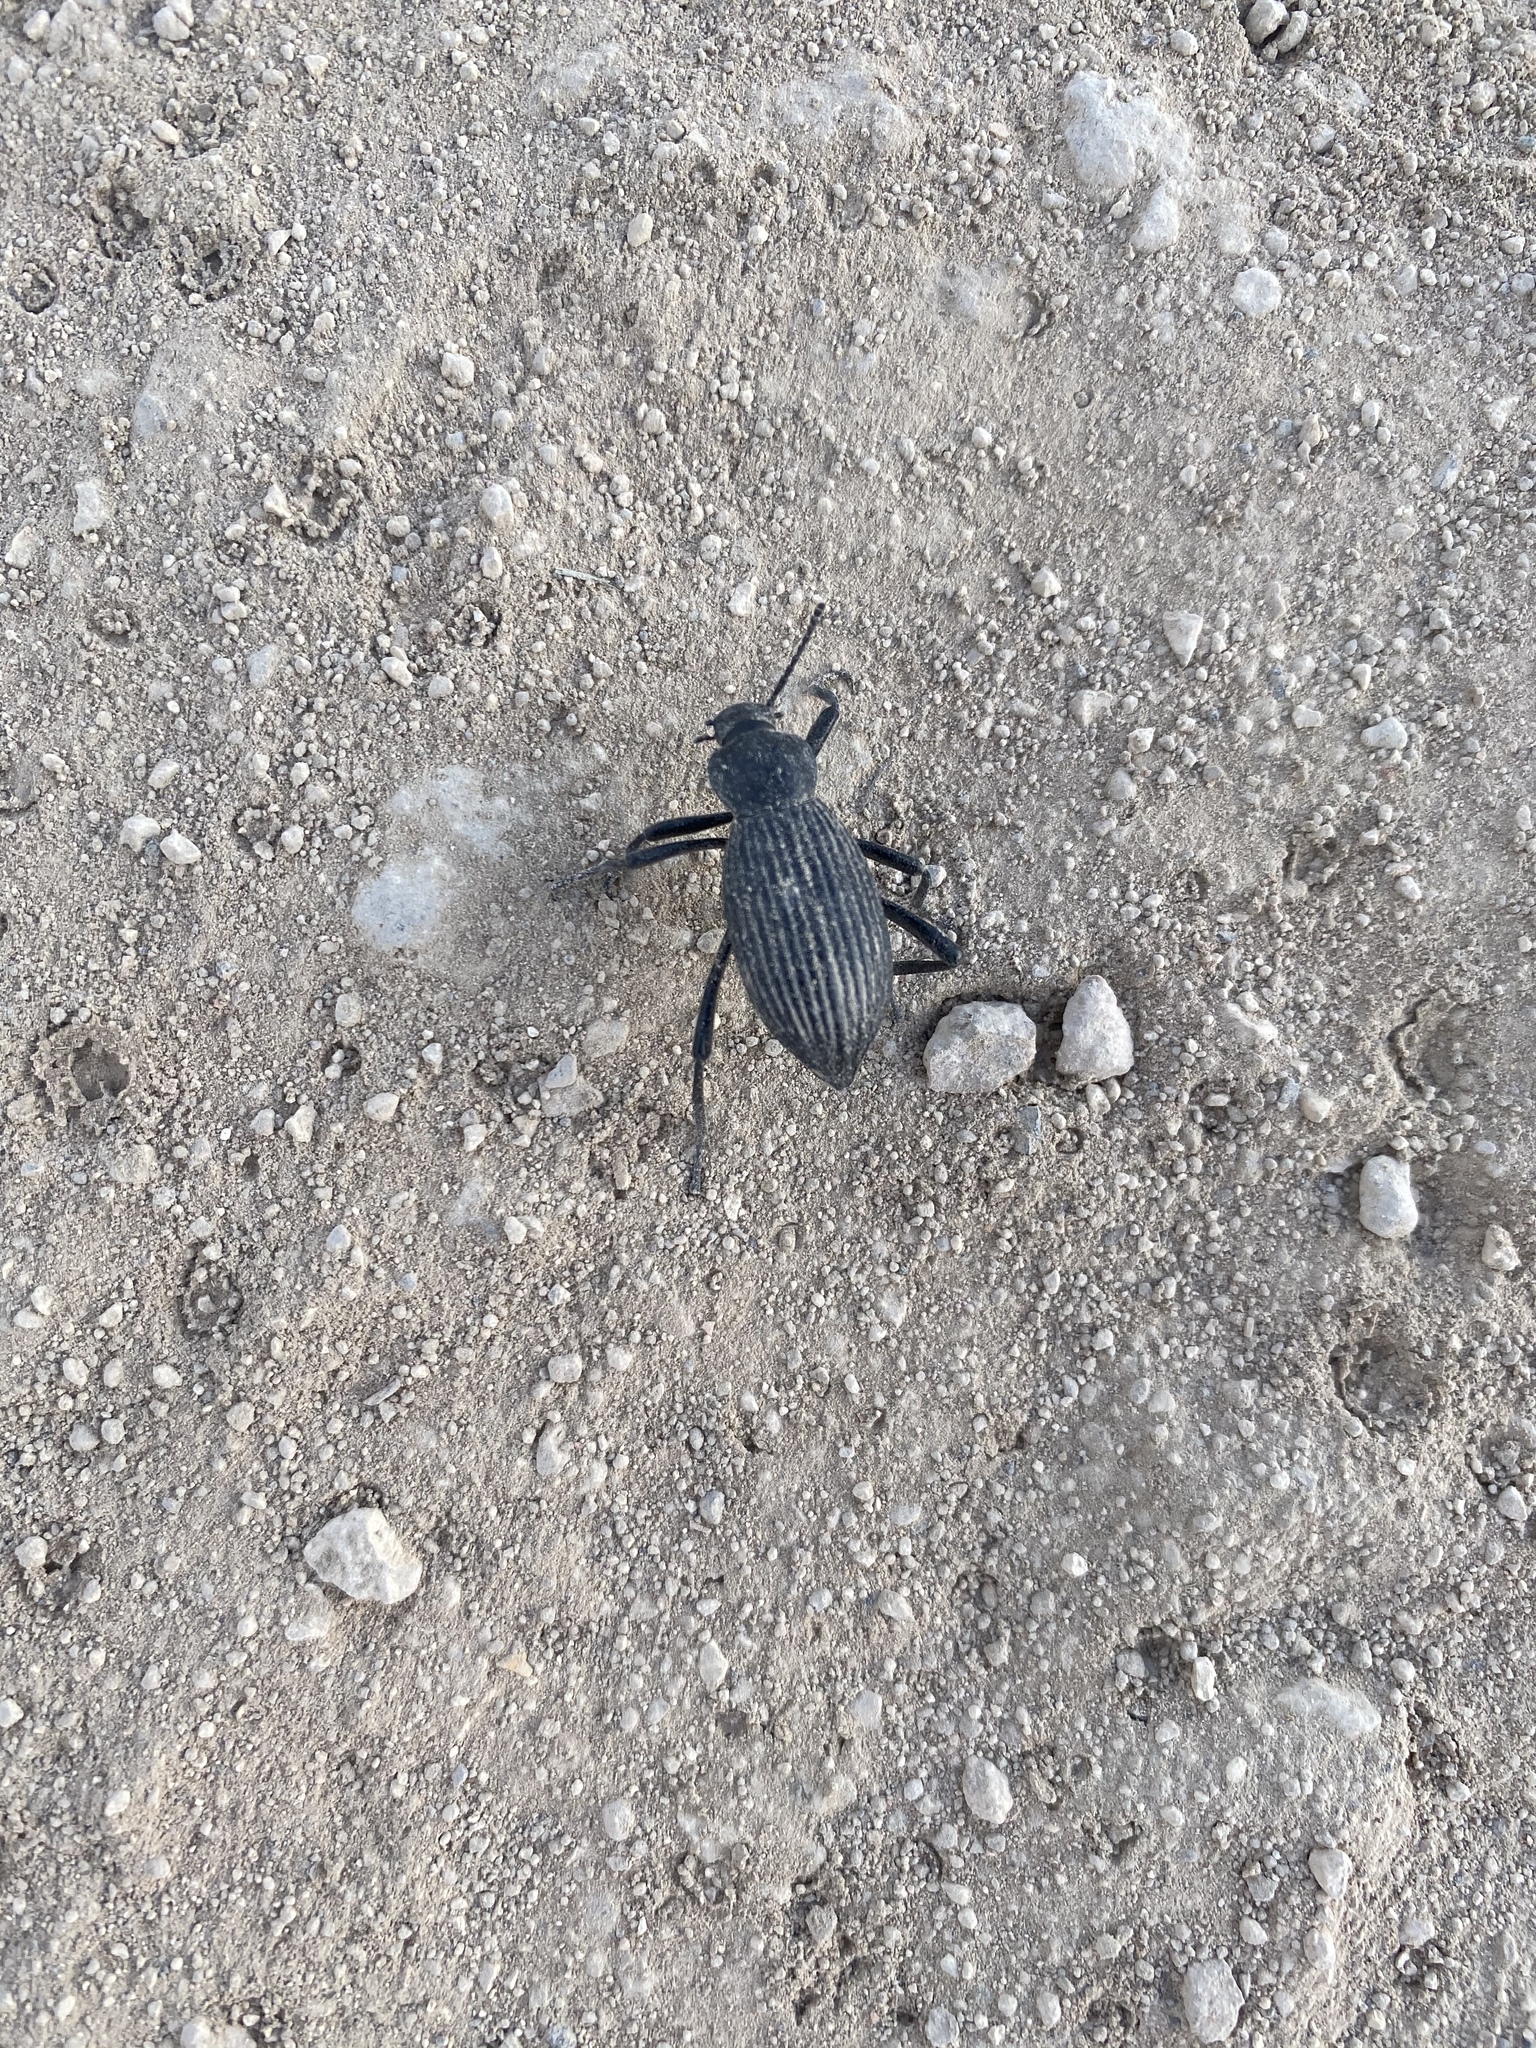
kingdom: Animalia
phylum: Arthropoda
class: Insecta
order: Coleoptera
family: Tenebrionidae
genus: Eleodes
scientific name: Eleodes hispilabris
